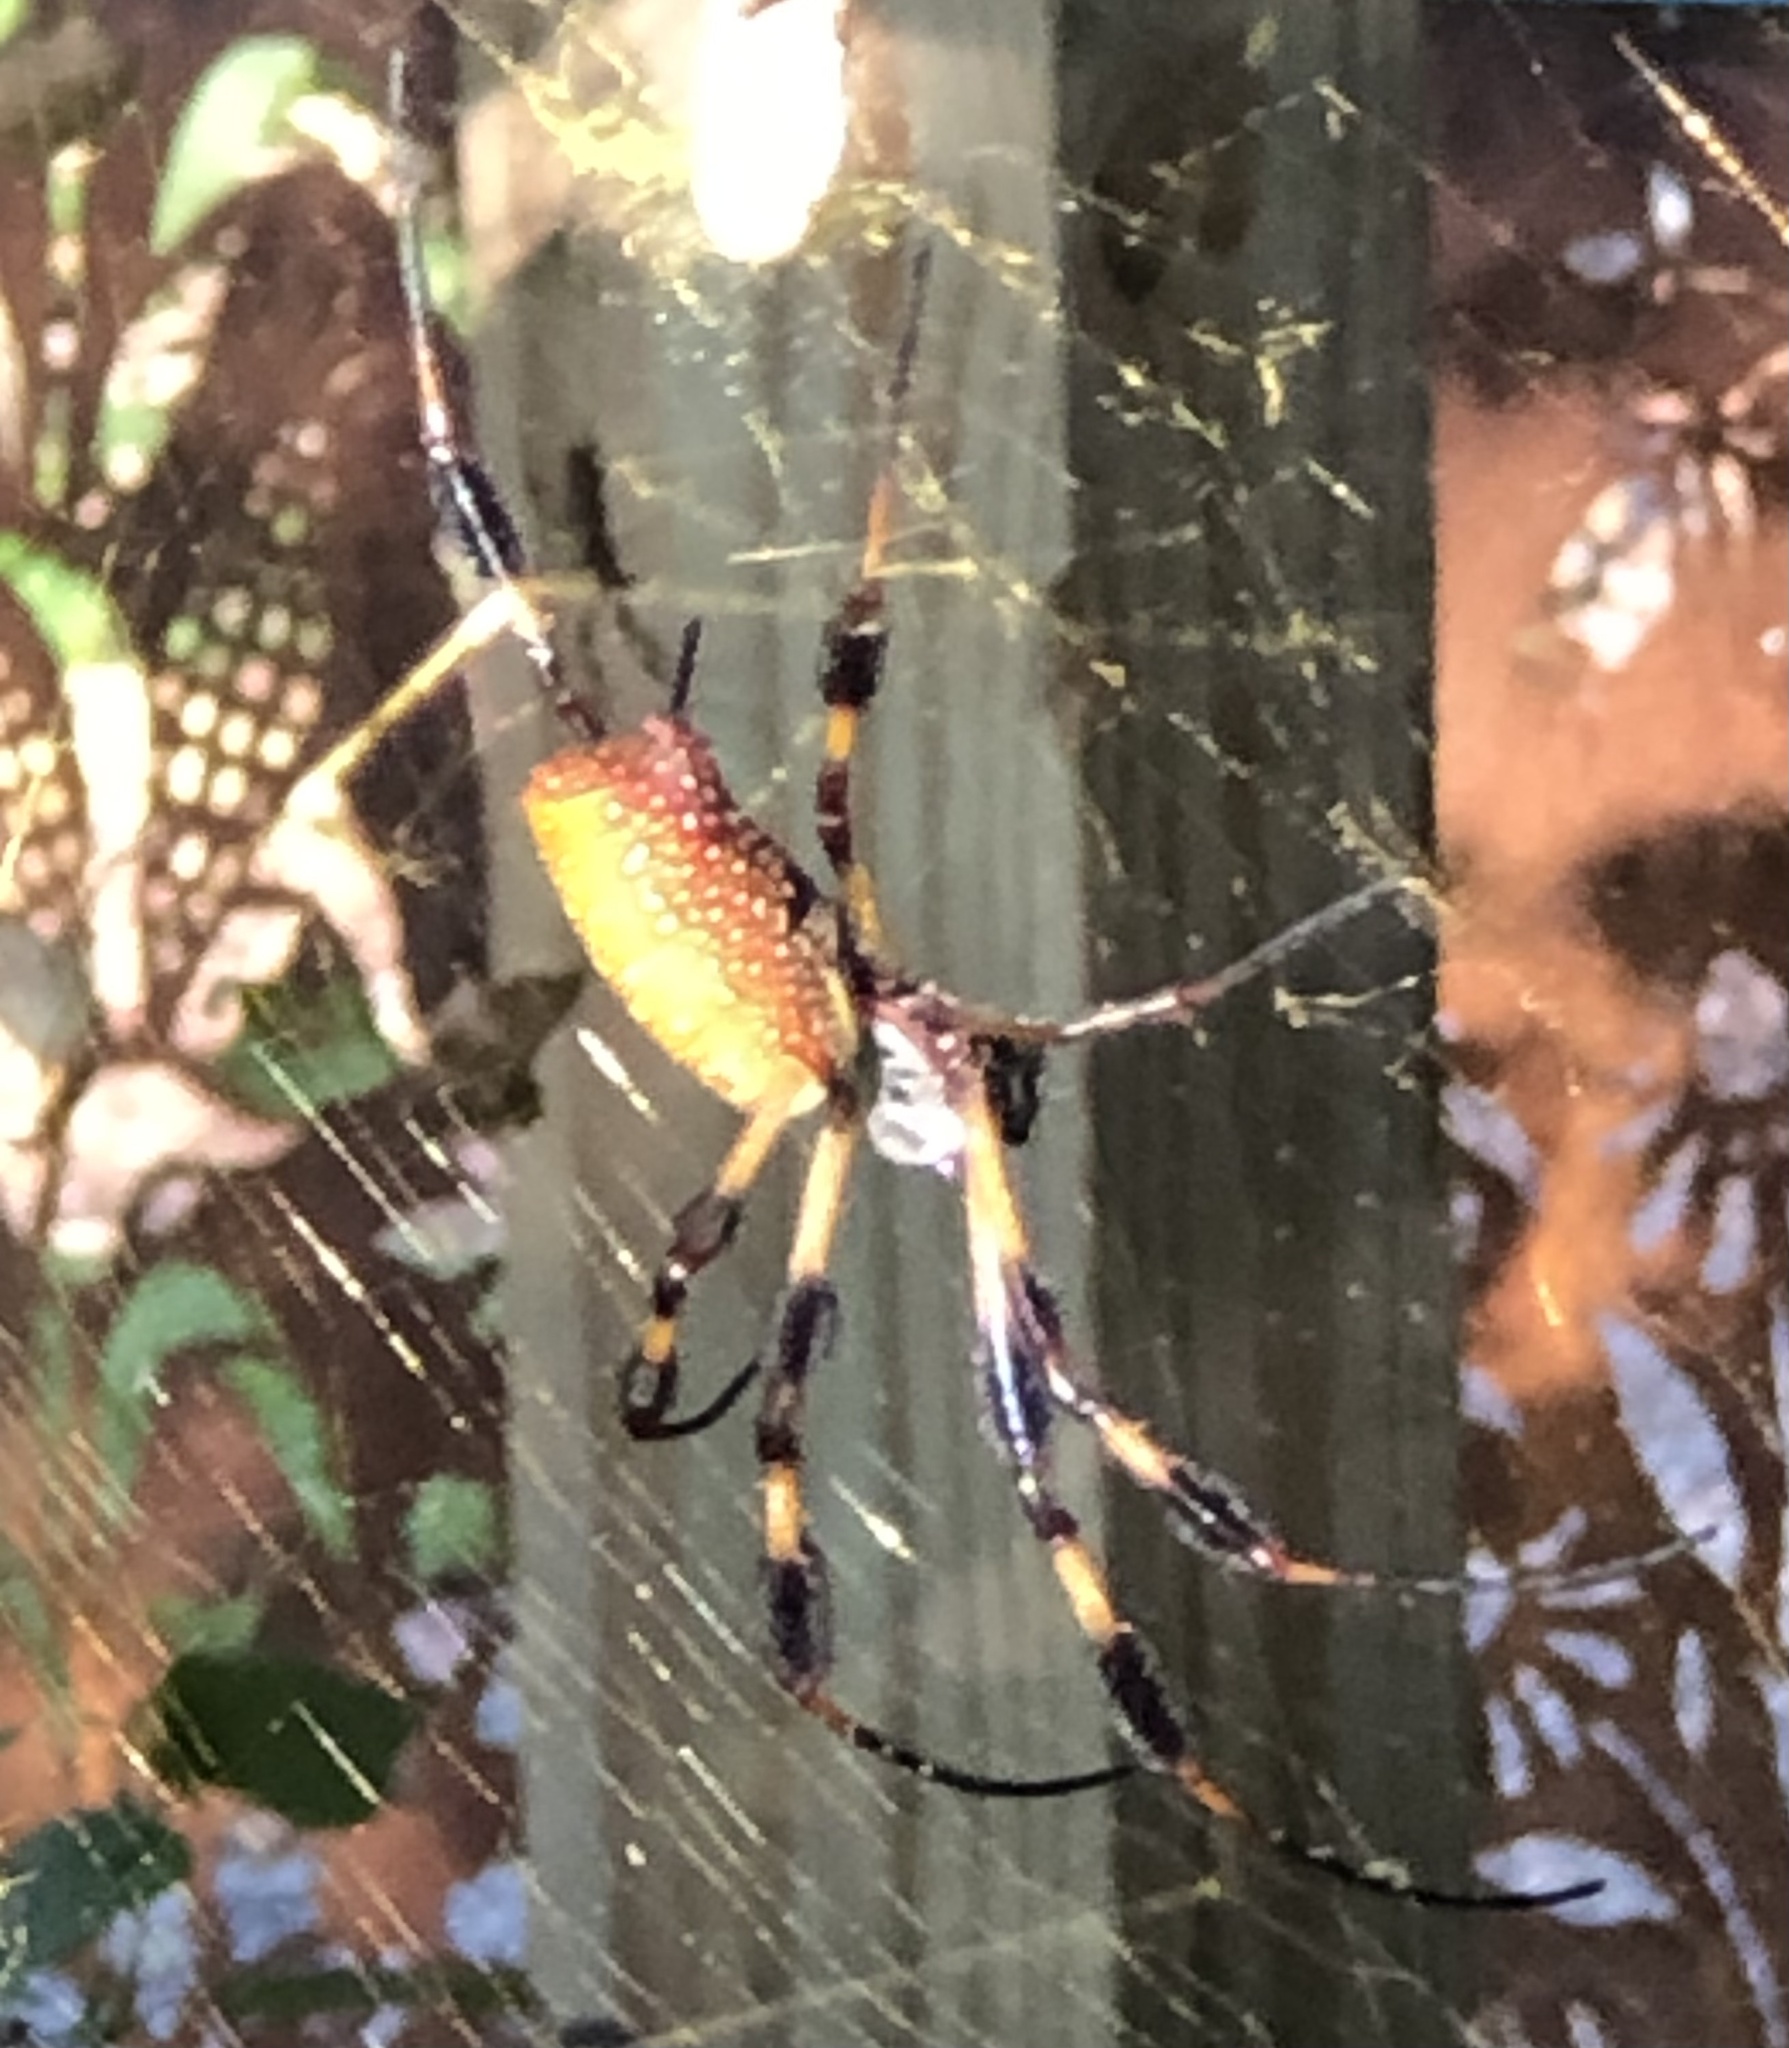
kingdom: Animalia
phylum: Arthropoda
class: Arachnida
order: Araneae
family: Araneidae
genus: Trichonephila
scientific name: Trichonephila clavipes
